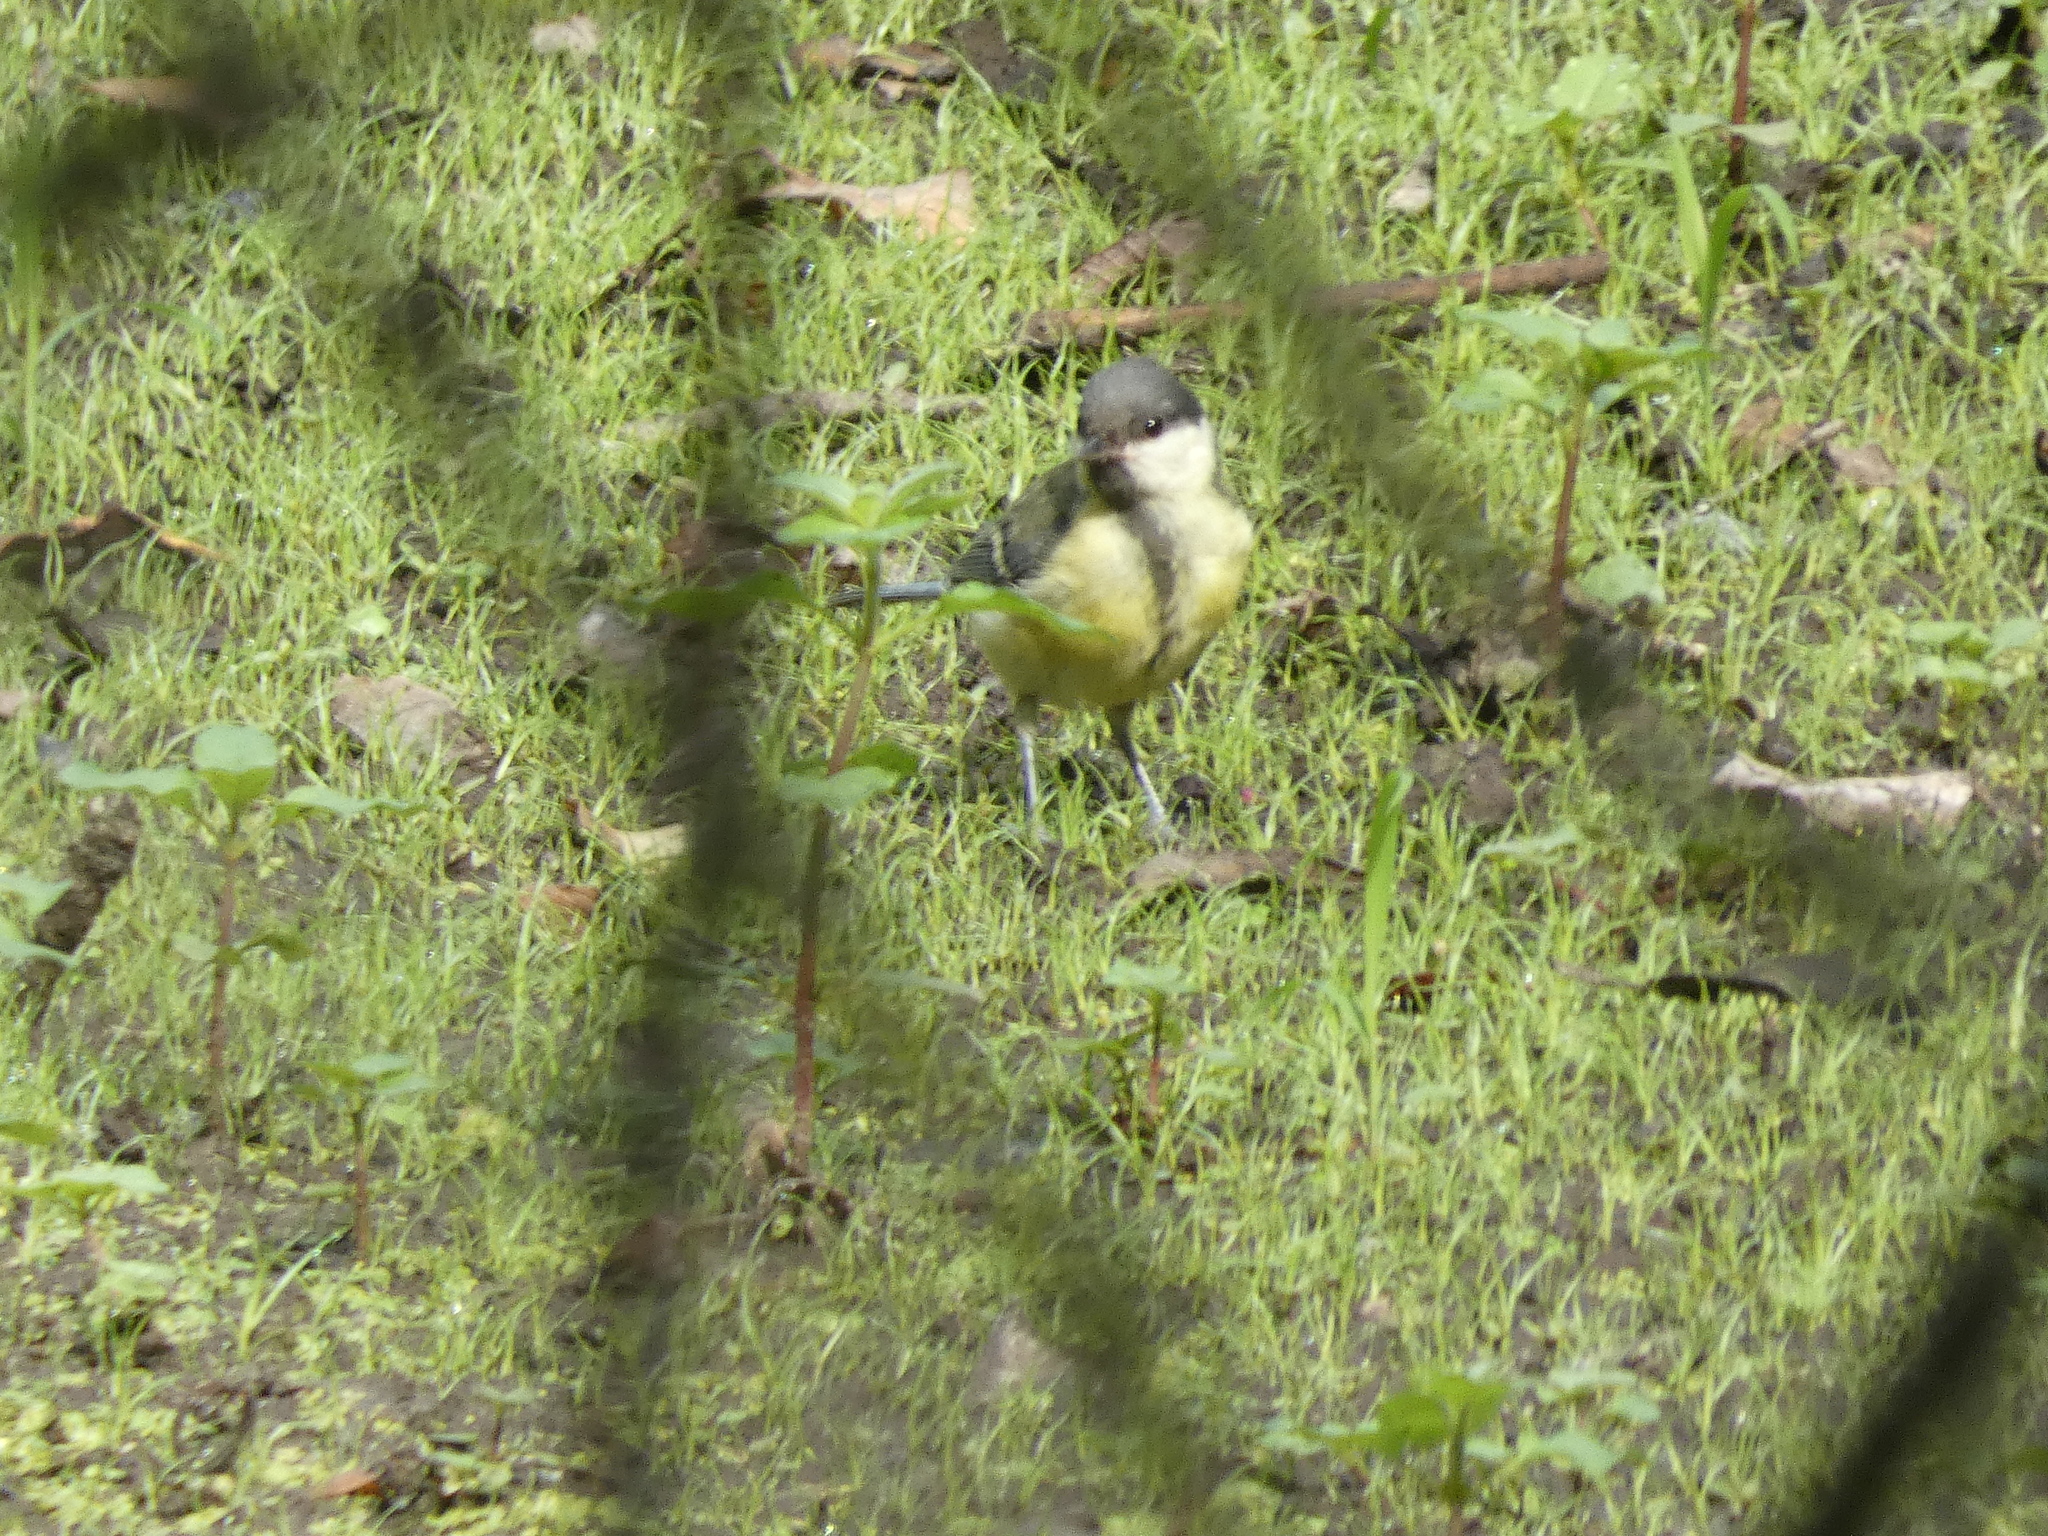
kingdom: Animalia
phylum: Chordata
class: Aves
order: Passeriformes
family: Paridae
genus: Parus
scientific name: Parus major
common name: Great tit
